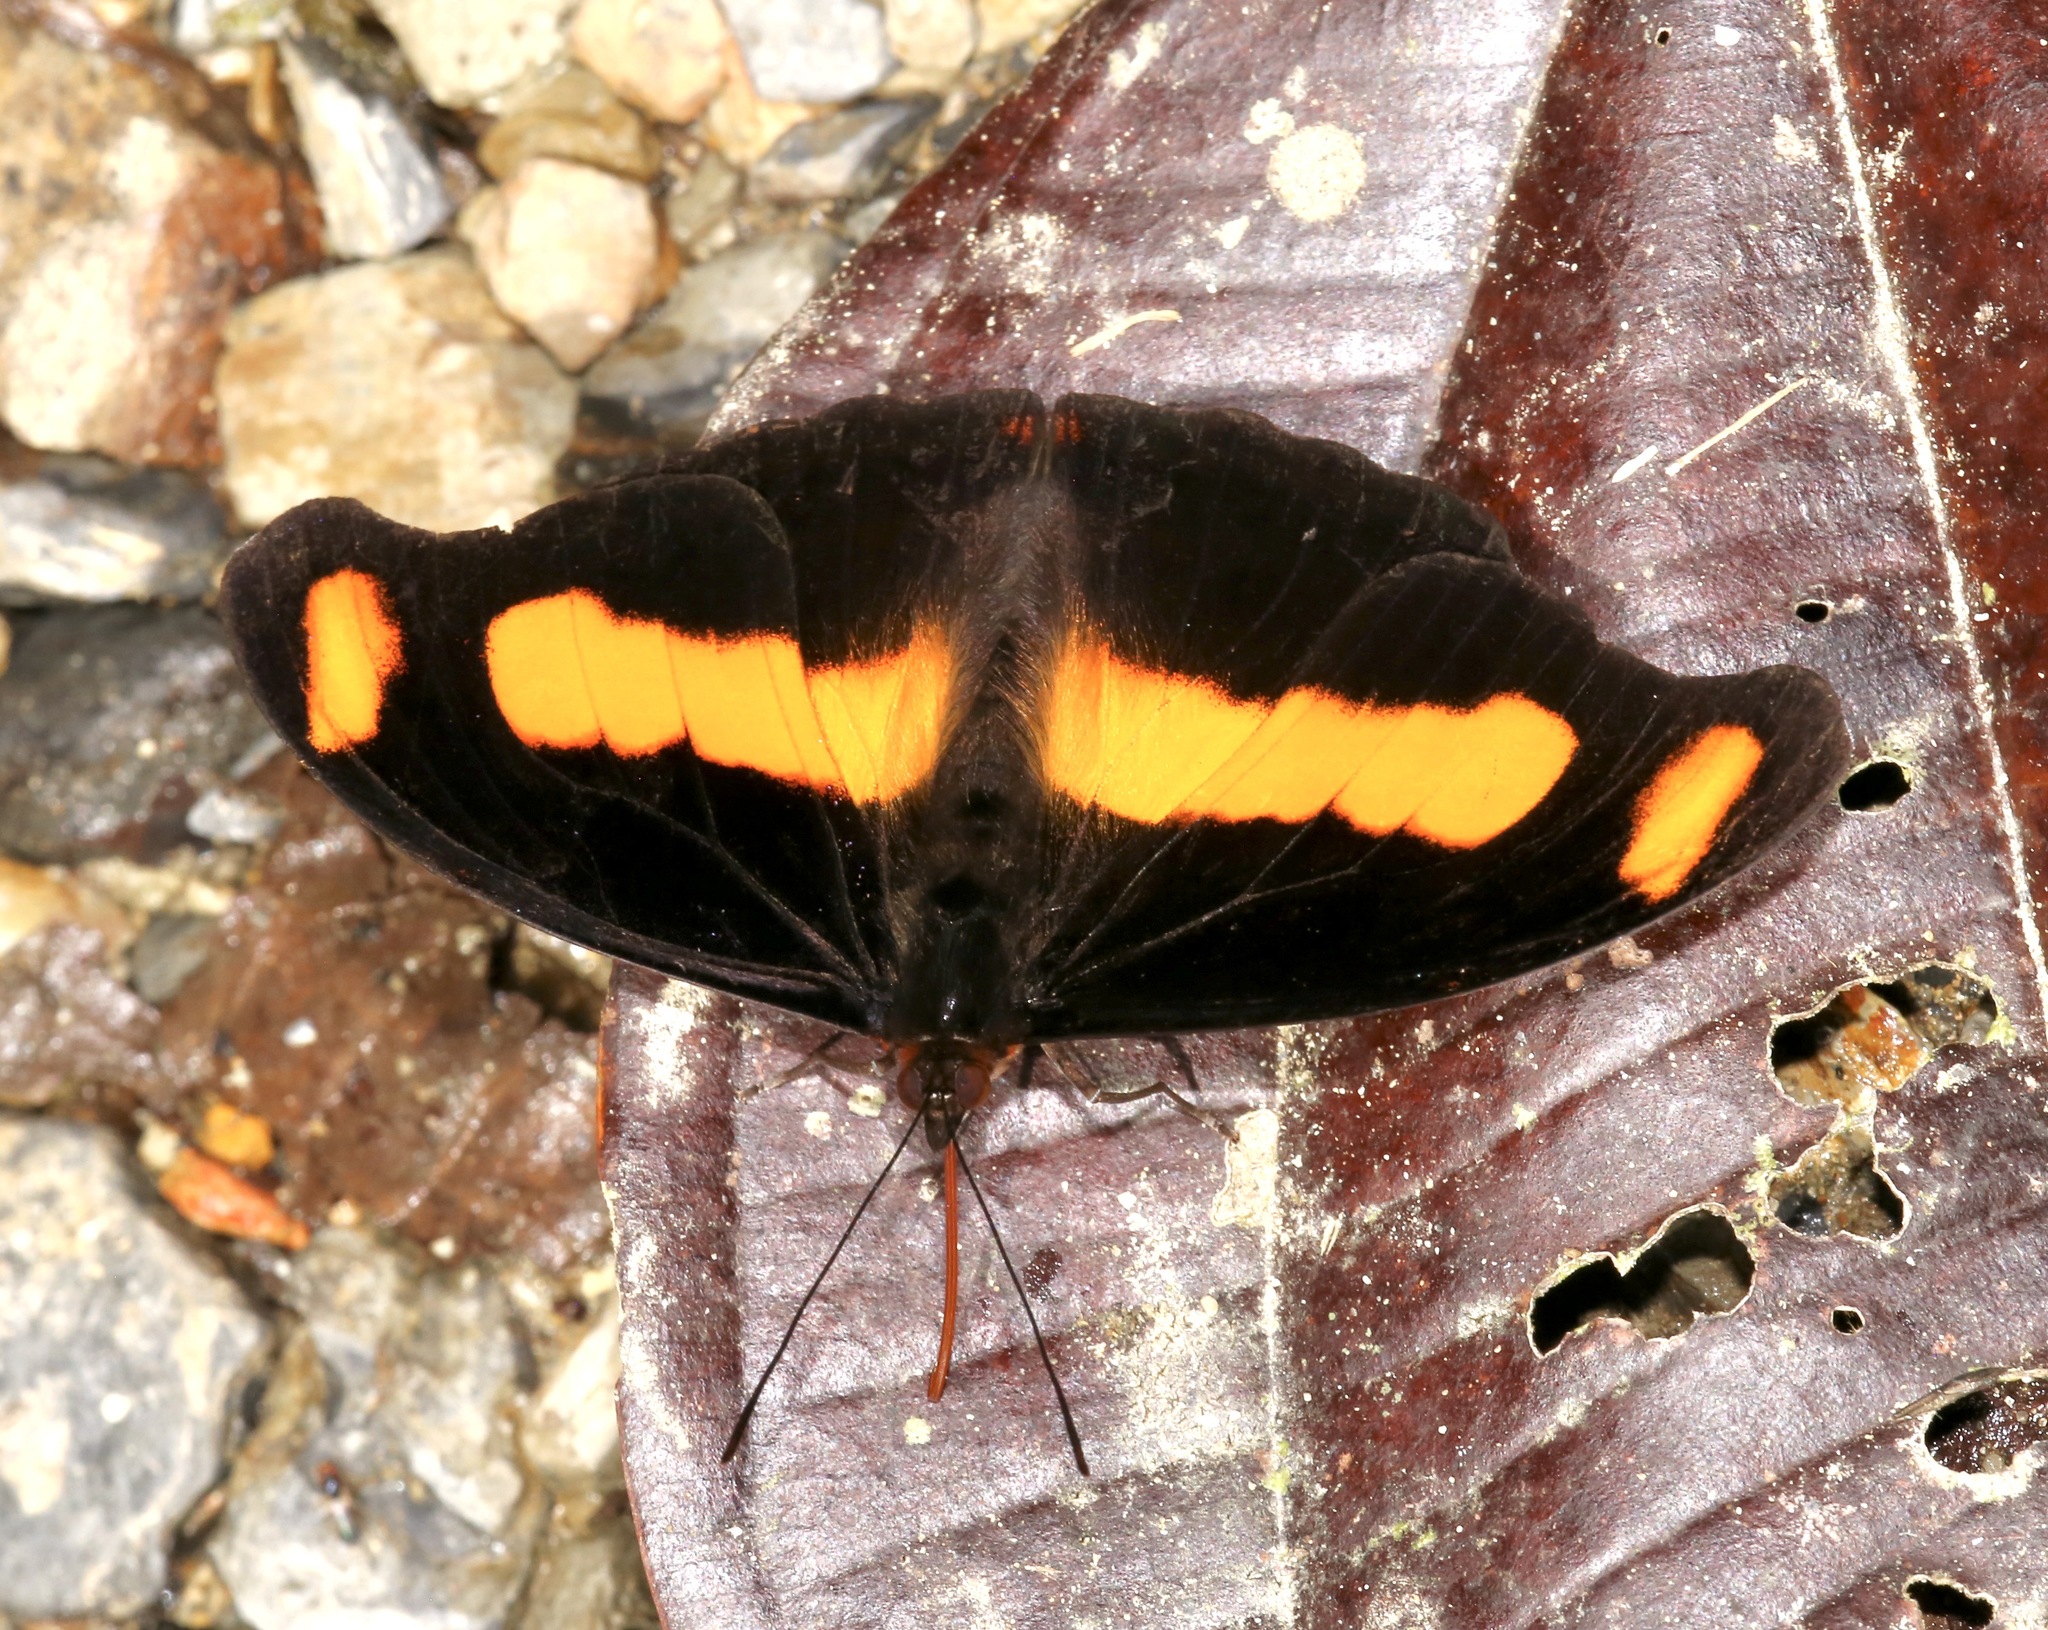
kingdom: Animalia
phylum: Arthropoda
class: Insecta
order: Lepidoptera
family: Nymphalidae
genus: Catonephele
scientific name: Catonephele chromis
